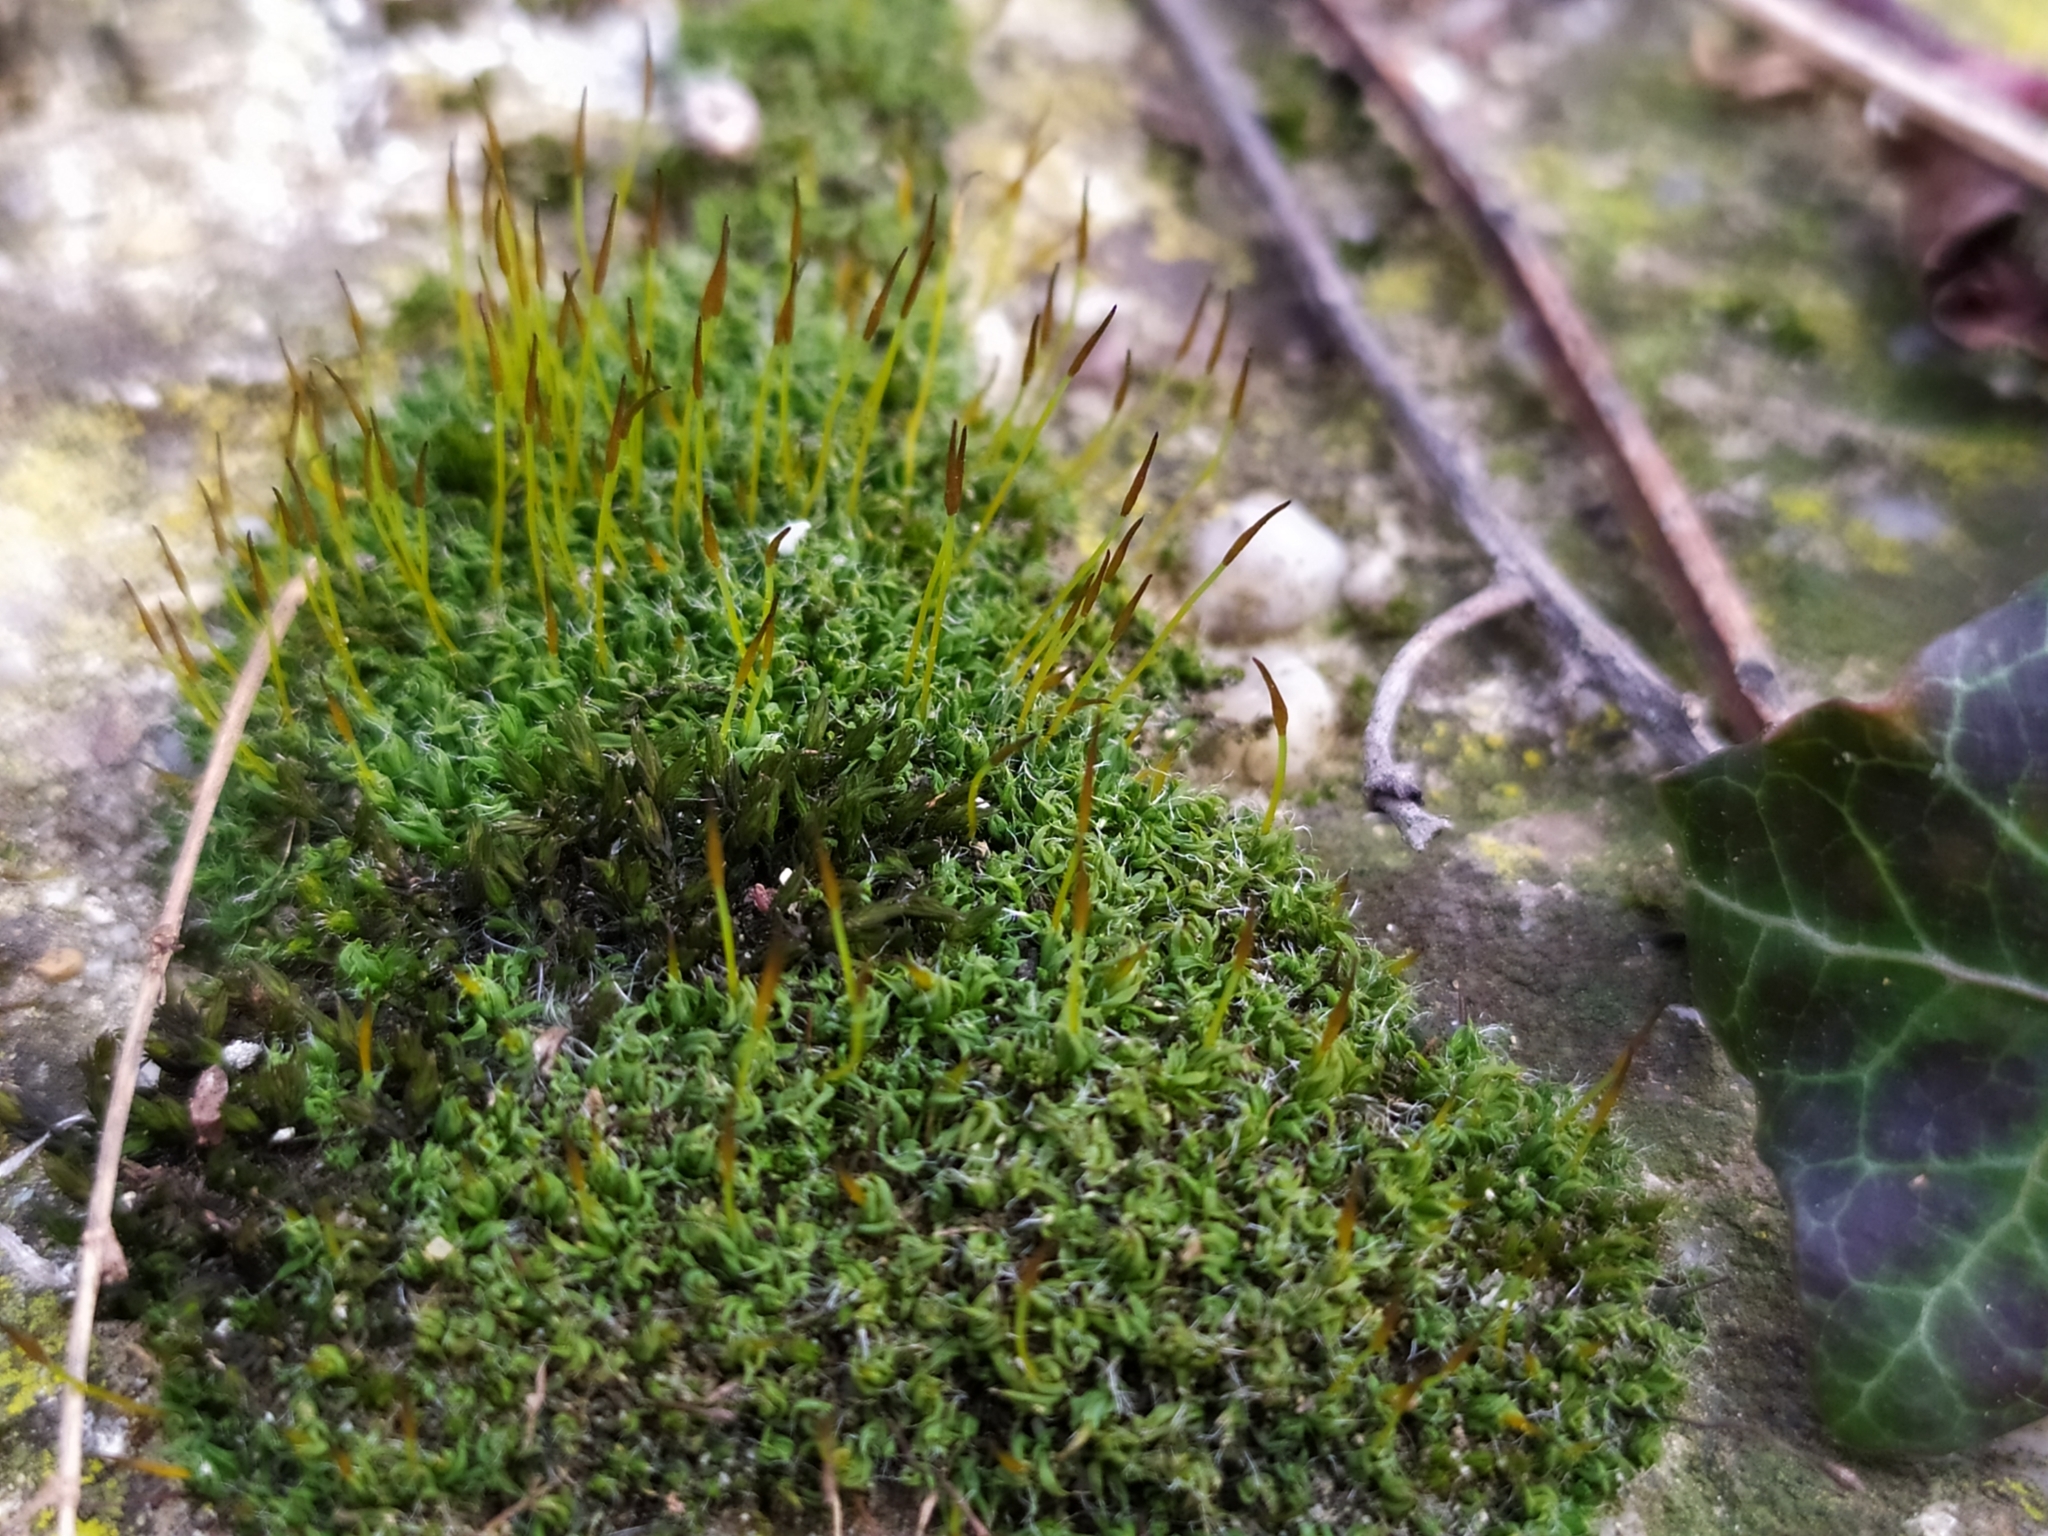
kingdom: Plantae
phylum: Bryophyta
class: Bryopsida
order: Pottiales
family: Pottiaceae
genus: Tortula
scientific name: Tortula muralis
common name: Wall screw-moss
